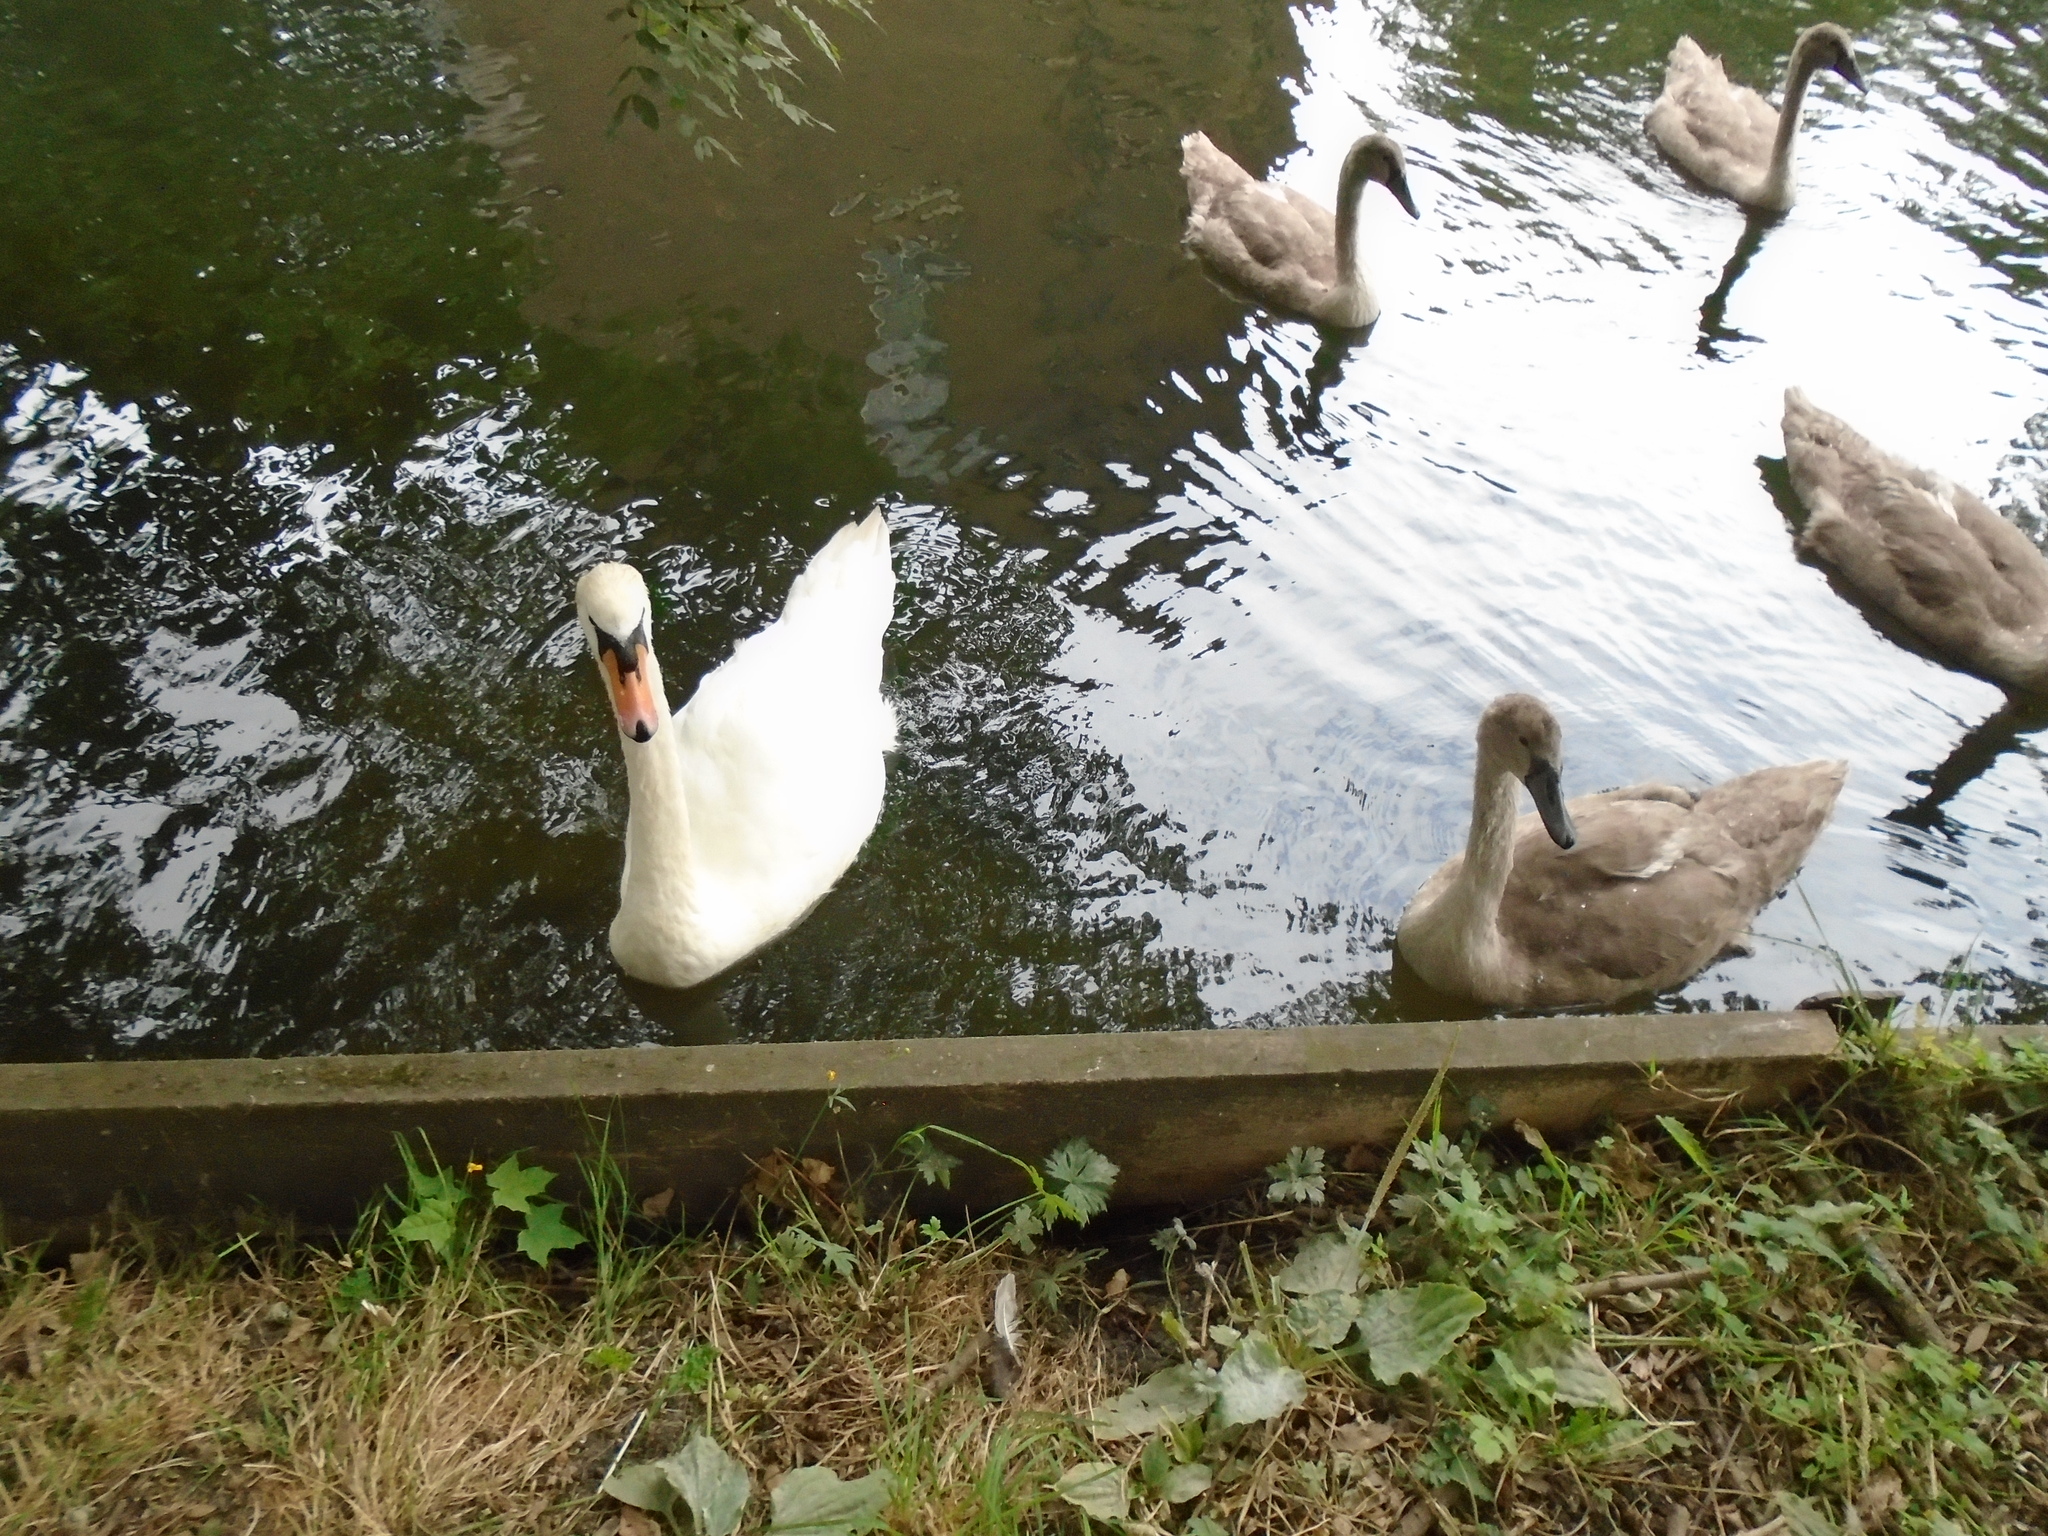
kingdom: Animalia
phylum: Chordata
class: Aves
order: Anseriformes
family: Anatidae
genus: Cygnus
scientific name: Cygnus olor
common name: Mute swan
